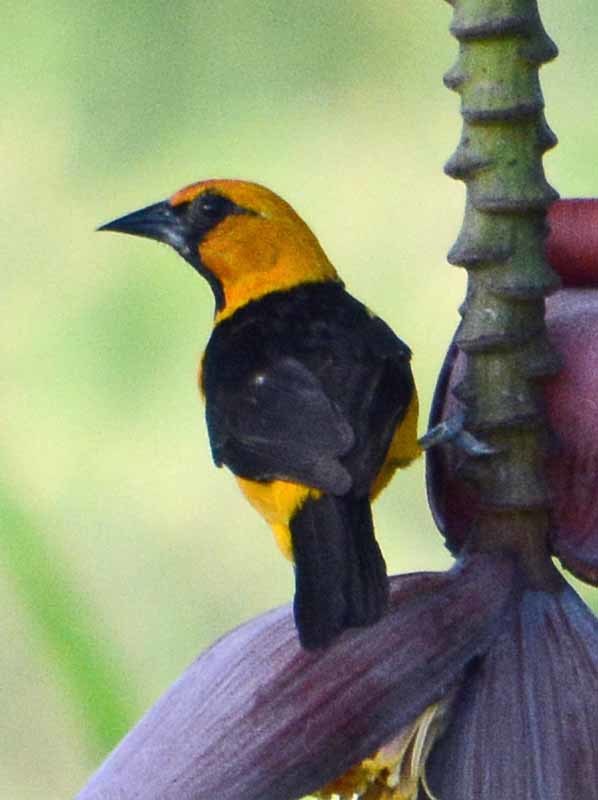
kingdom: Animalia
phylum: Chordata
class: Aves
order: Passeriformes
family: Icteridae
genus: Icterus
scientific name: Icterus gularis
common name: Altamira oriole
